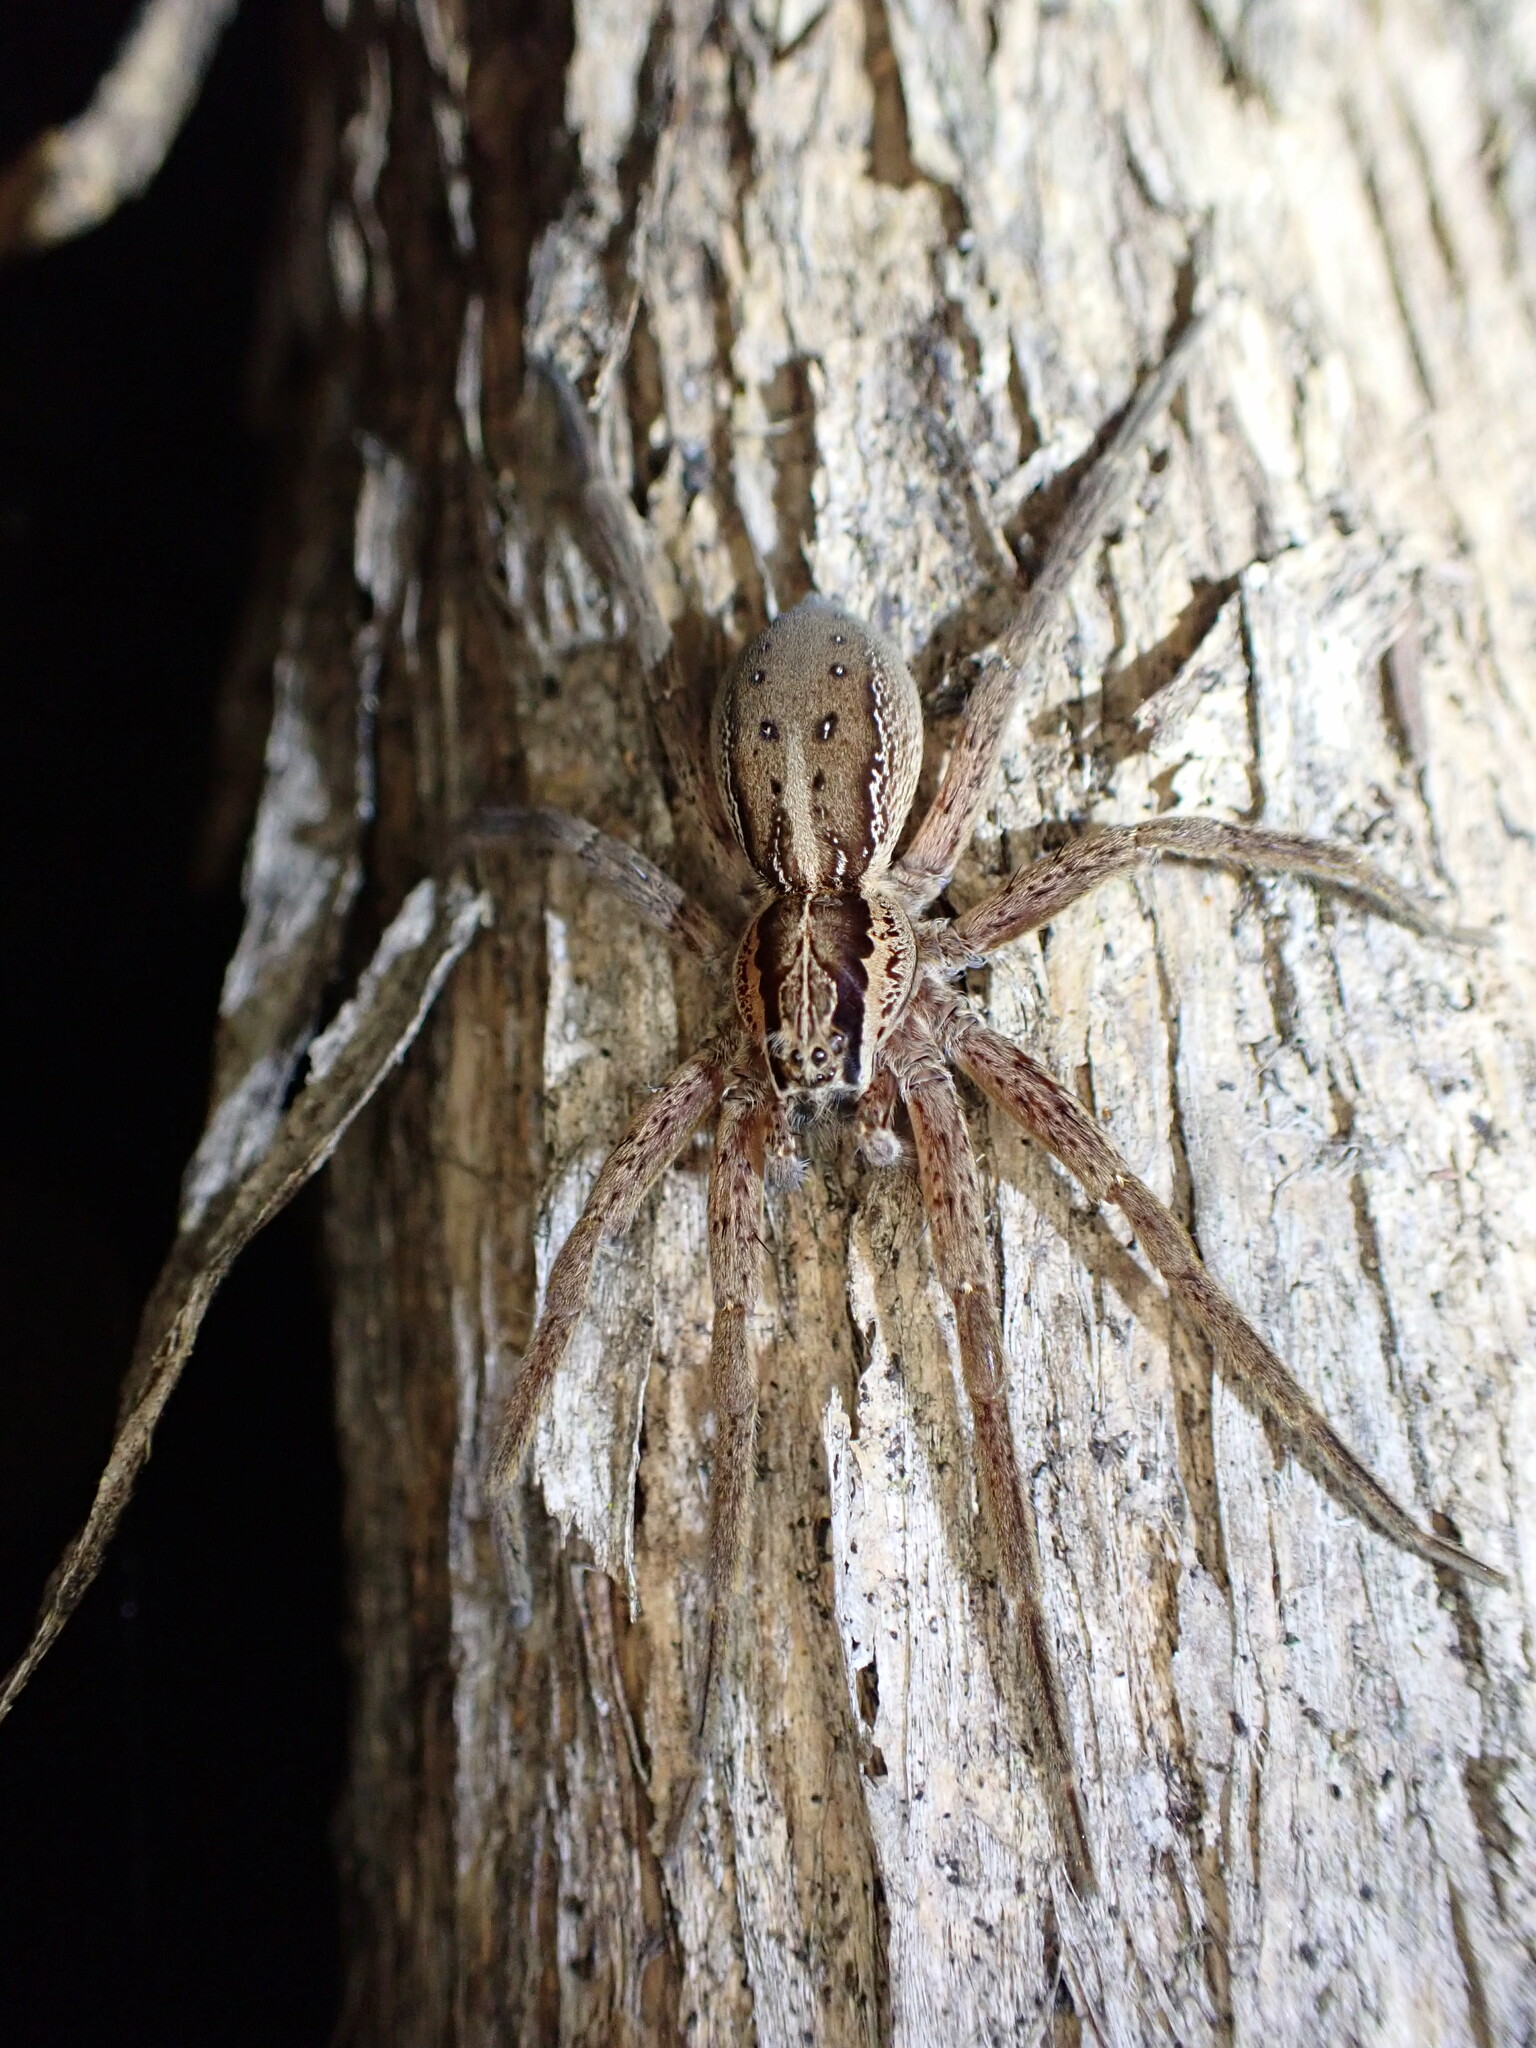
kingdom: Animalia
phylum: Arthropoda
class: Arachnida
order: Araneae
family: Pisauridae
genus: Dolomedes
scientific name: Dolomedes minor
